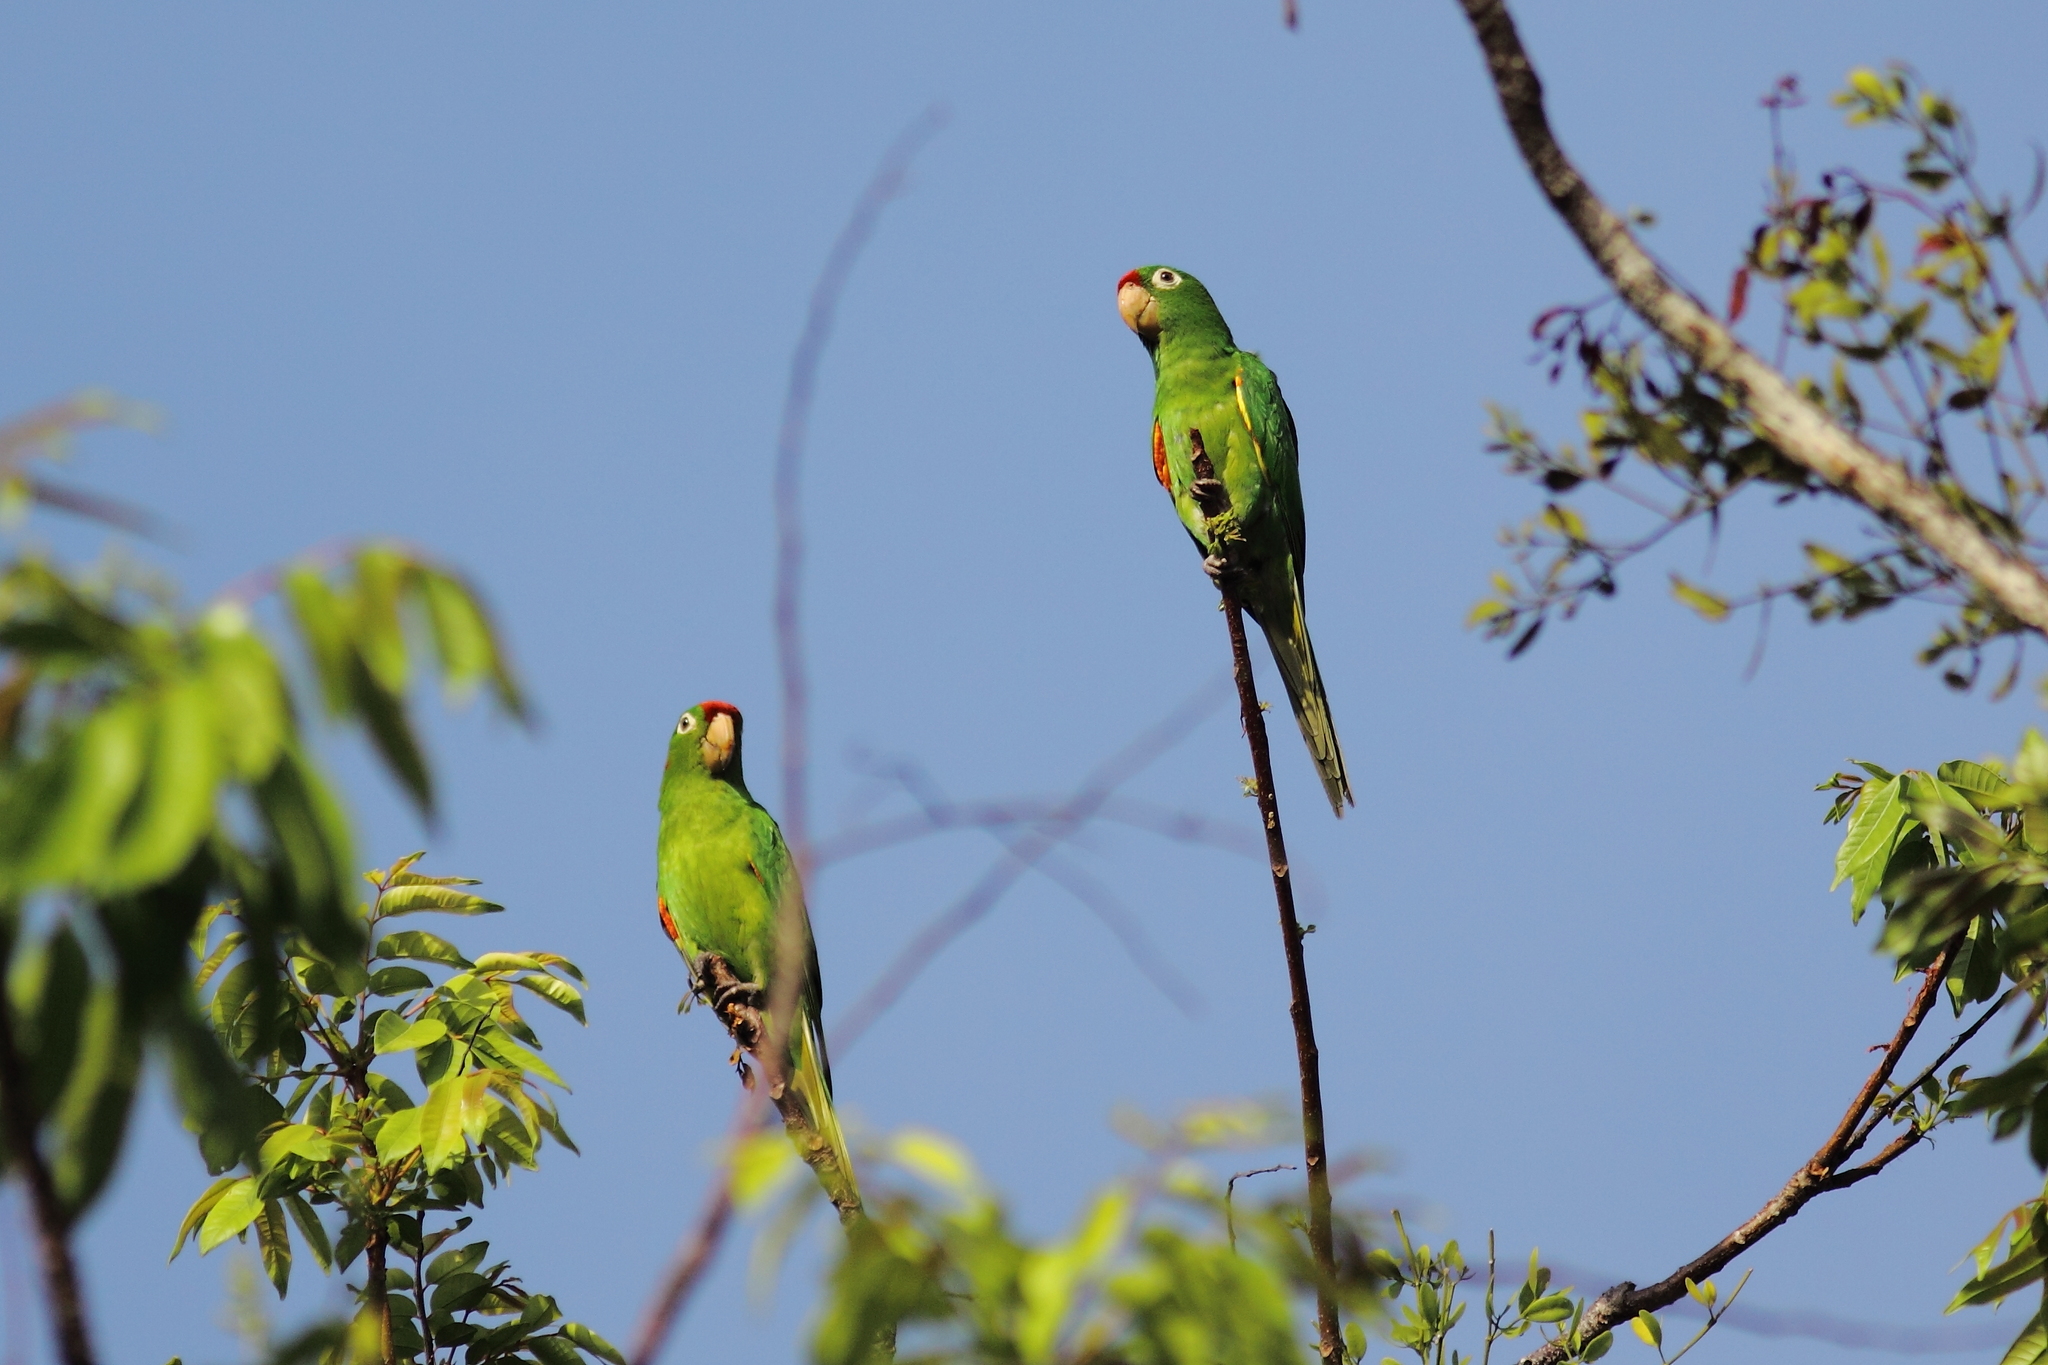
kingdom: Animalia
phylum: Chordata
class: Aves
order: Psittaciformes
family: Psittacidae
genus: Aratinga
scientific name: Aratinga finschi
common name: Crimson-fronted parakeet
